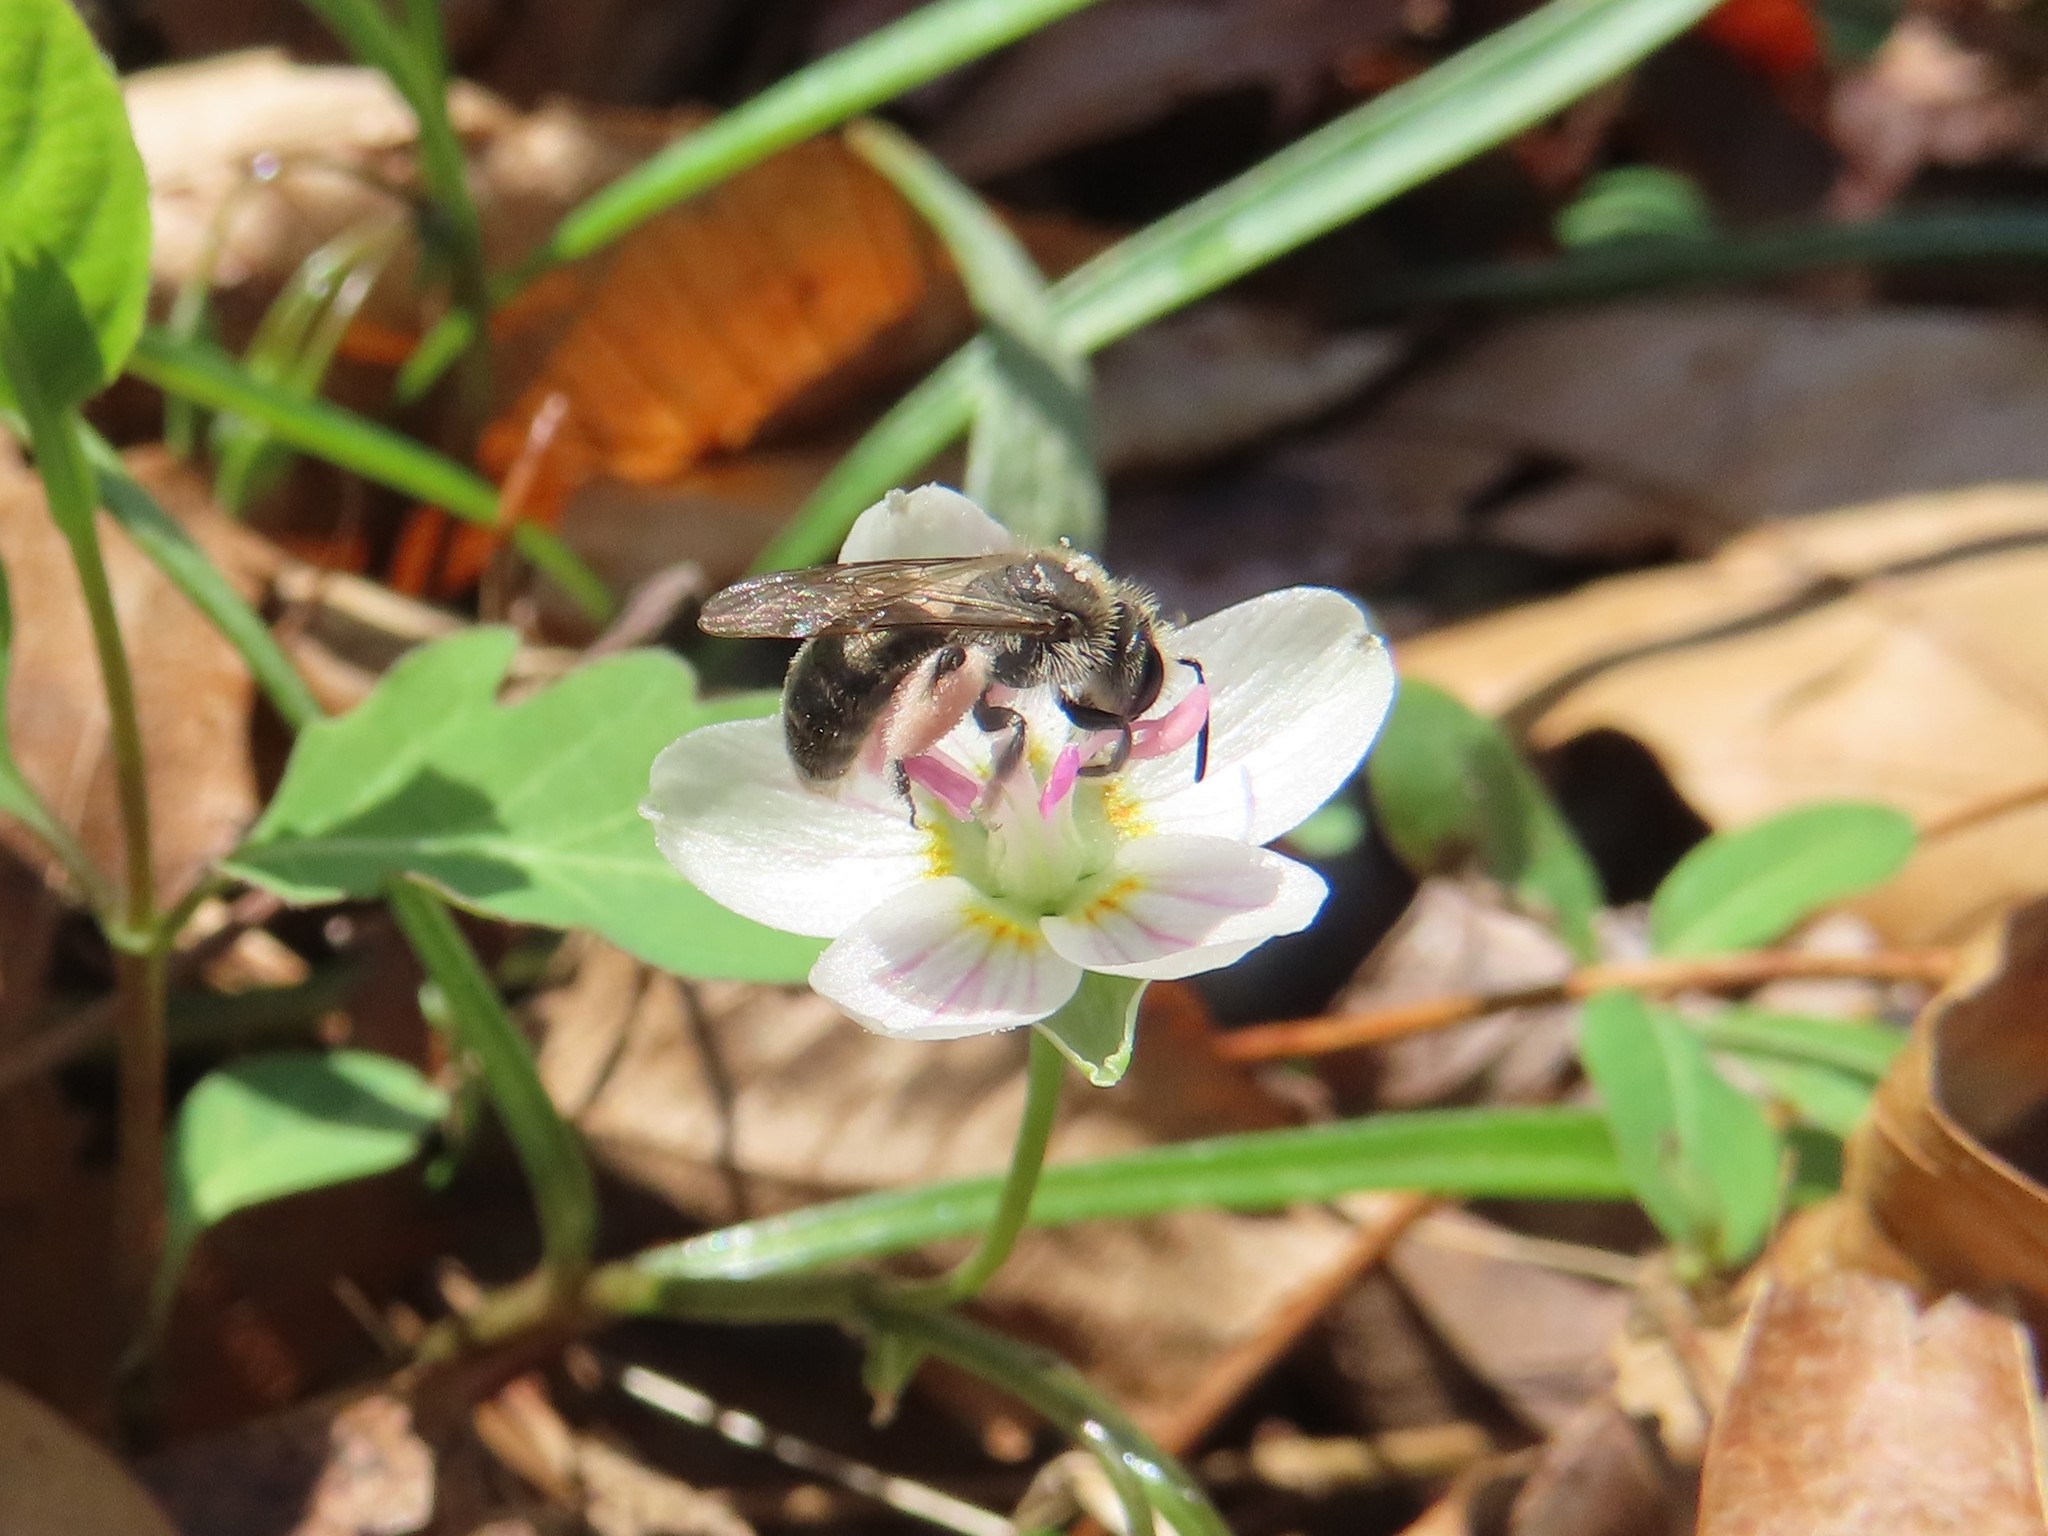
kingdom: Animalia
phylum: Arthropoda
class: Insecta
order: Hymenoptera
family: Andrenidae
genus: Andrena
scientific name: Andrena erigeniae
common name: Spring beauty miner
